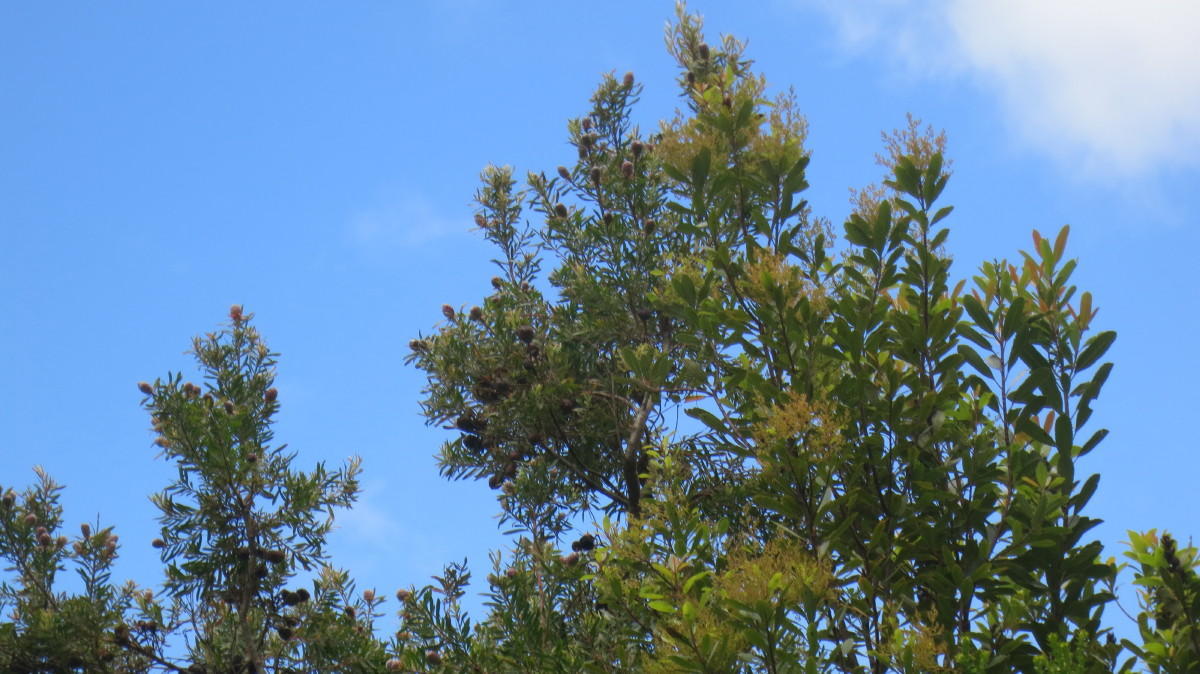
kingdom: Plantae
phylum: Tracheophyta
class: Magnoliopsida
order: Proteales
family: Proteaceae
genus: Leucadendron
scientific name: Leucadendron conicum
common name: Garden route conebush
